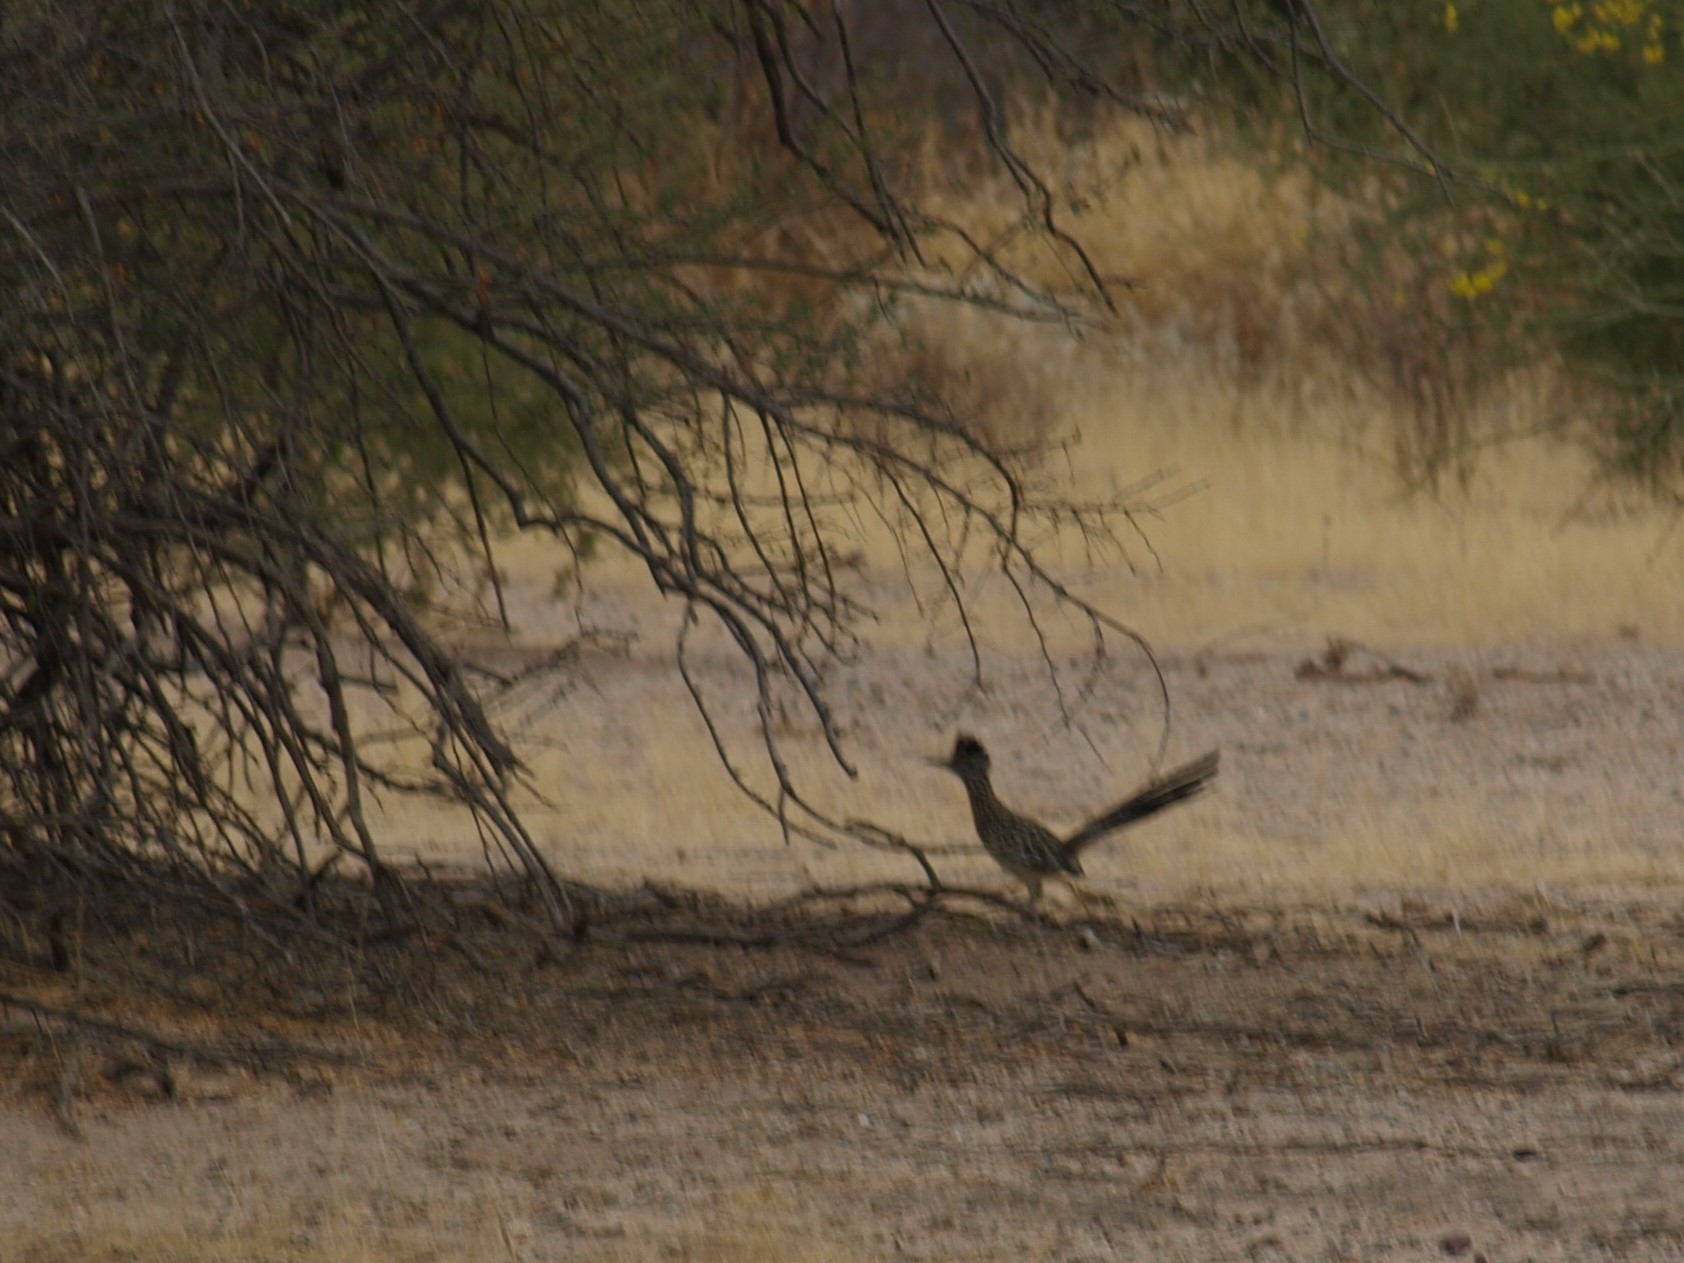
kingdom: Animalia
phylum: Chordata
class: Aves
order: Cuculiformes
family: Cuculidae
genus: Geococcyx
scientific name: Geococcyx californianus
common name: Greater roadrunner
